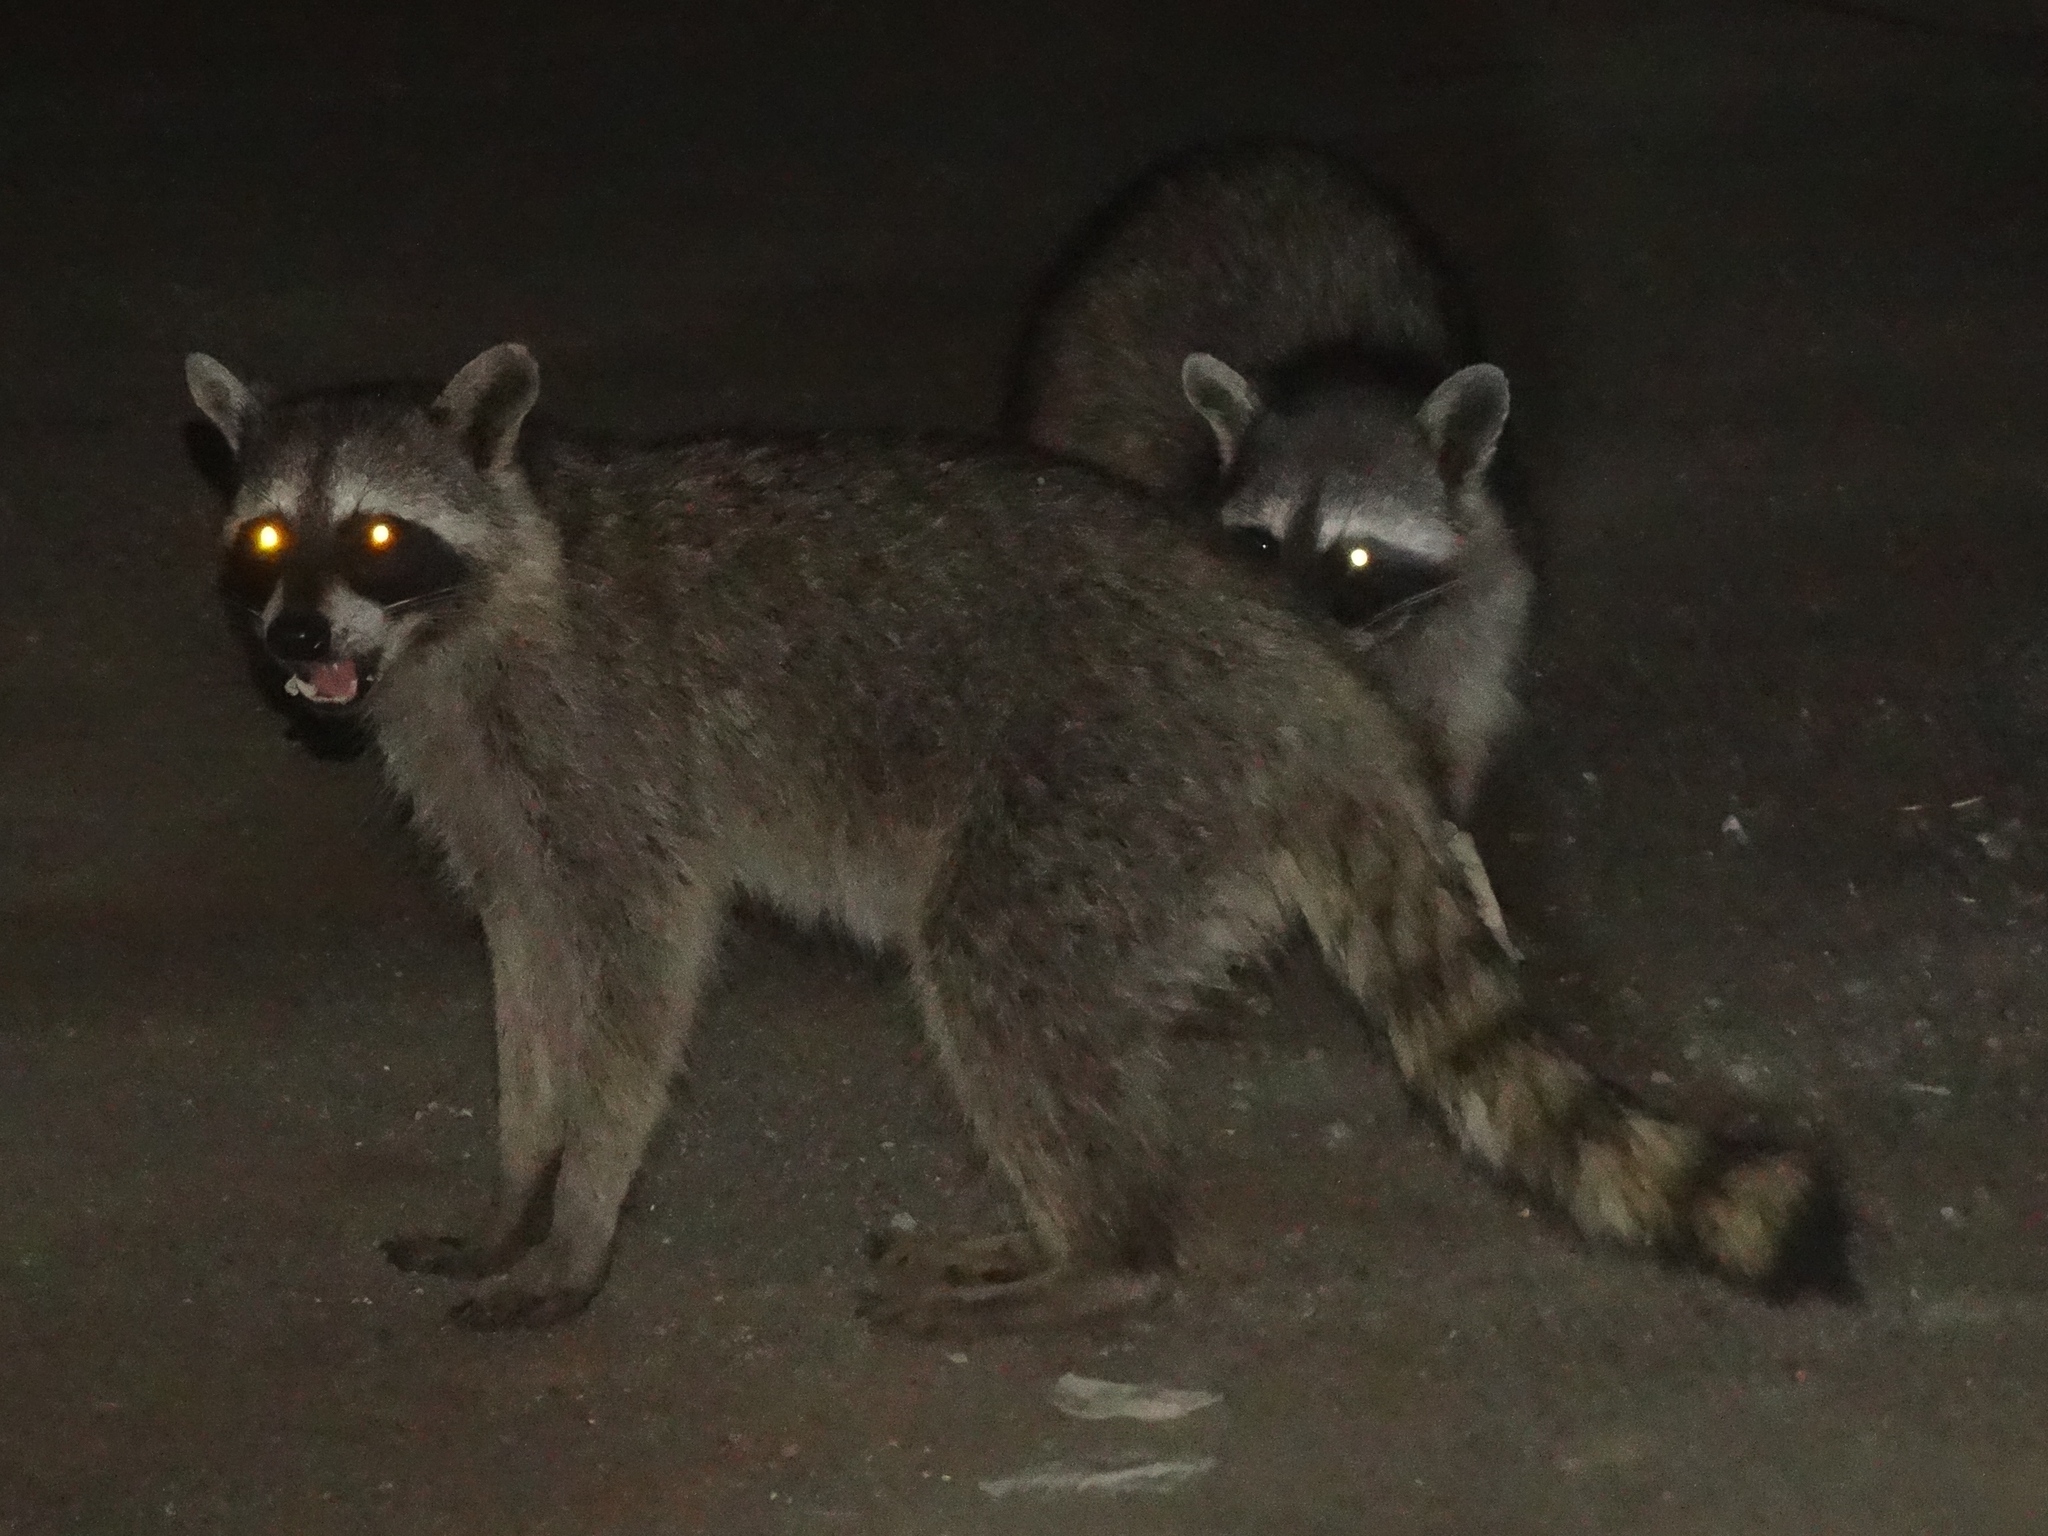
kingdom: Animalia
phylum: Chordata
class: Mammalia
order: Carnivora
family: Procyonidae
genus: Procyon
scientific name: Procyon lotor
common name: Raccoon
